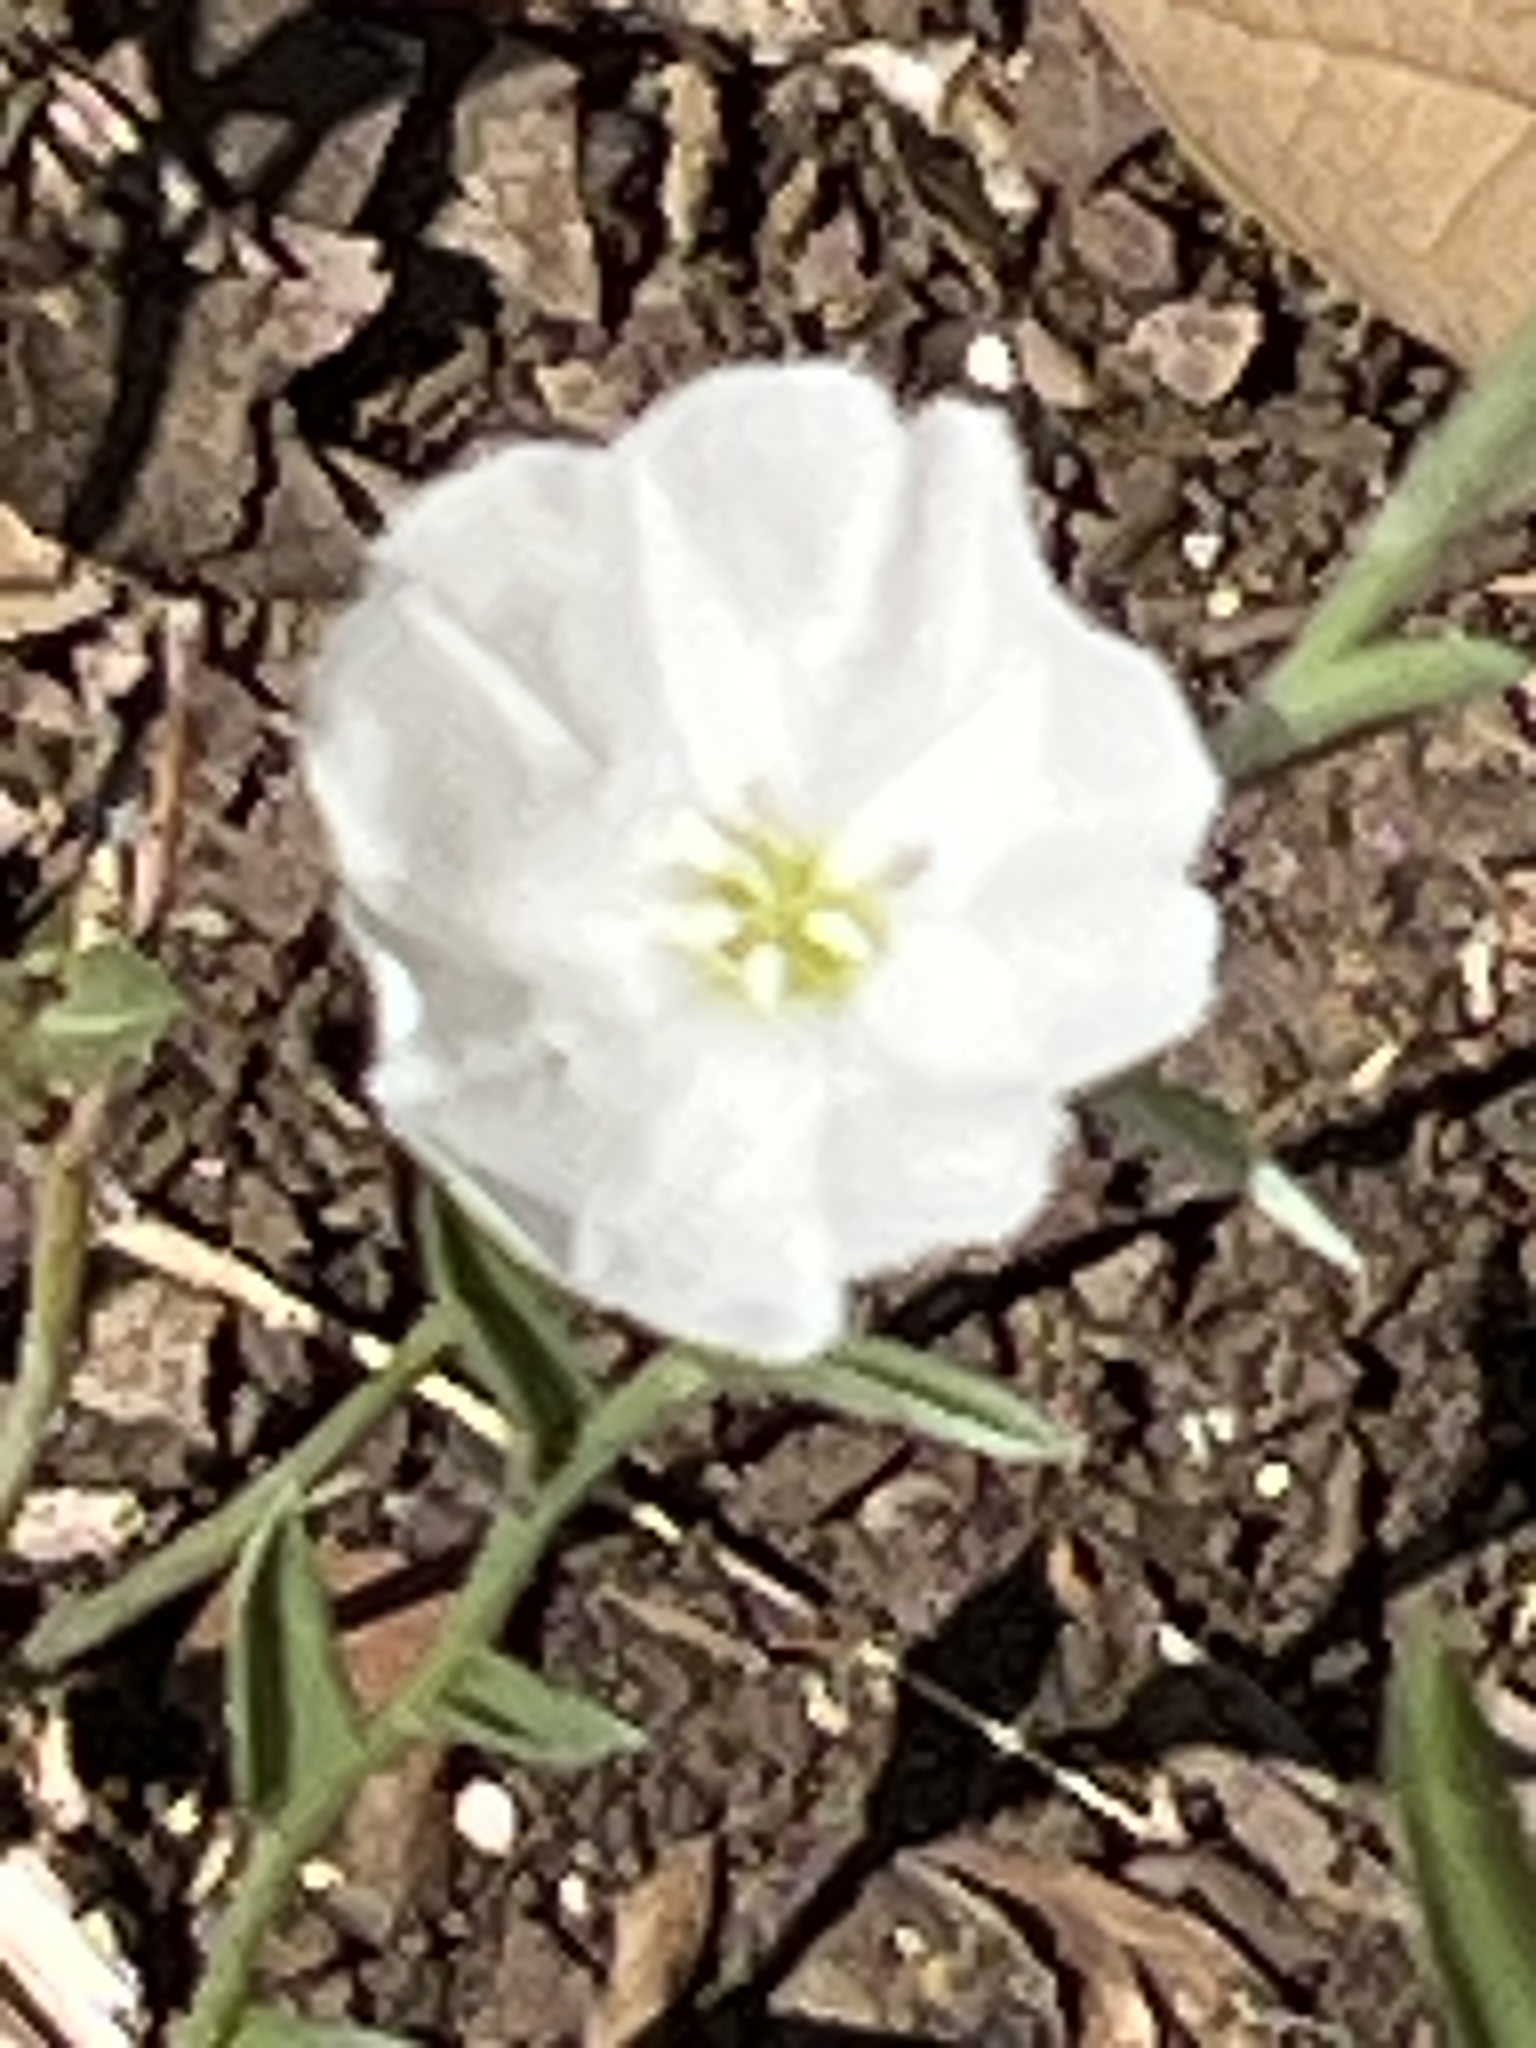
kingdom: Plantae
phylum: Tracheophyta
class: Magnoliopsida
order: Solanales
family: Convolvulaceae
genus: Evolvulus
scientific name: Evolvulus sericeus
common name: Blue dots
